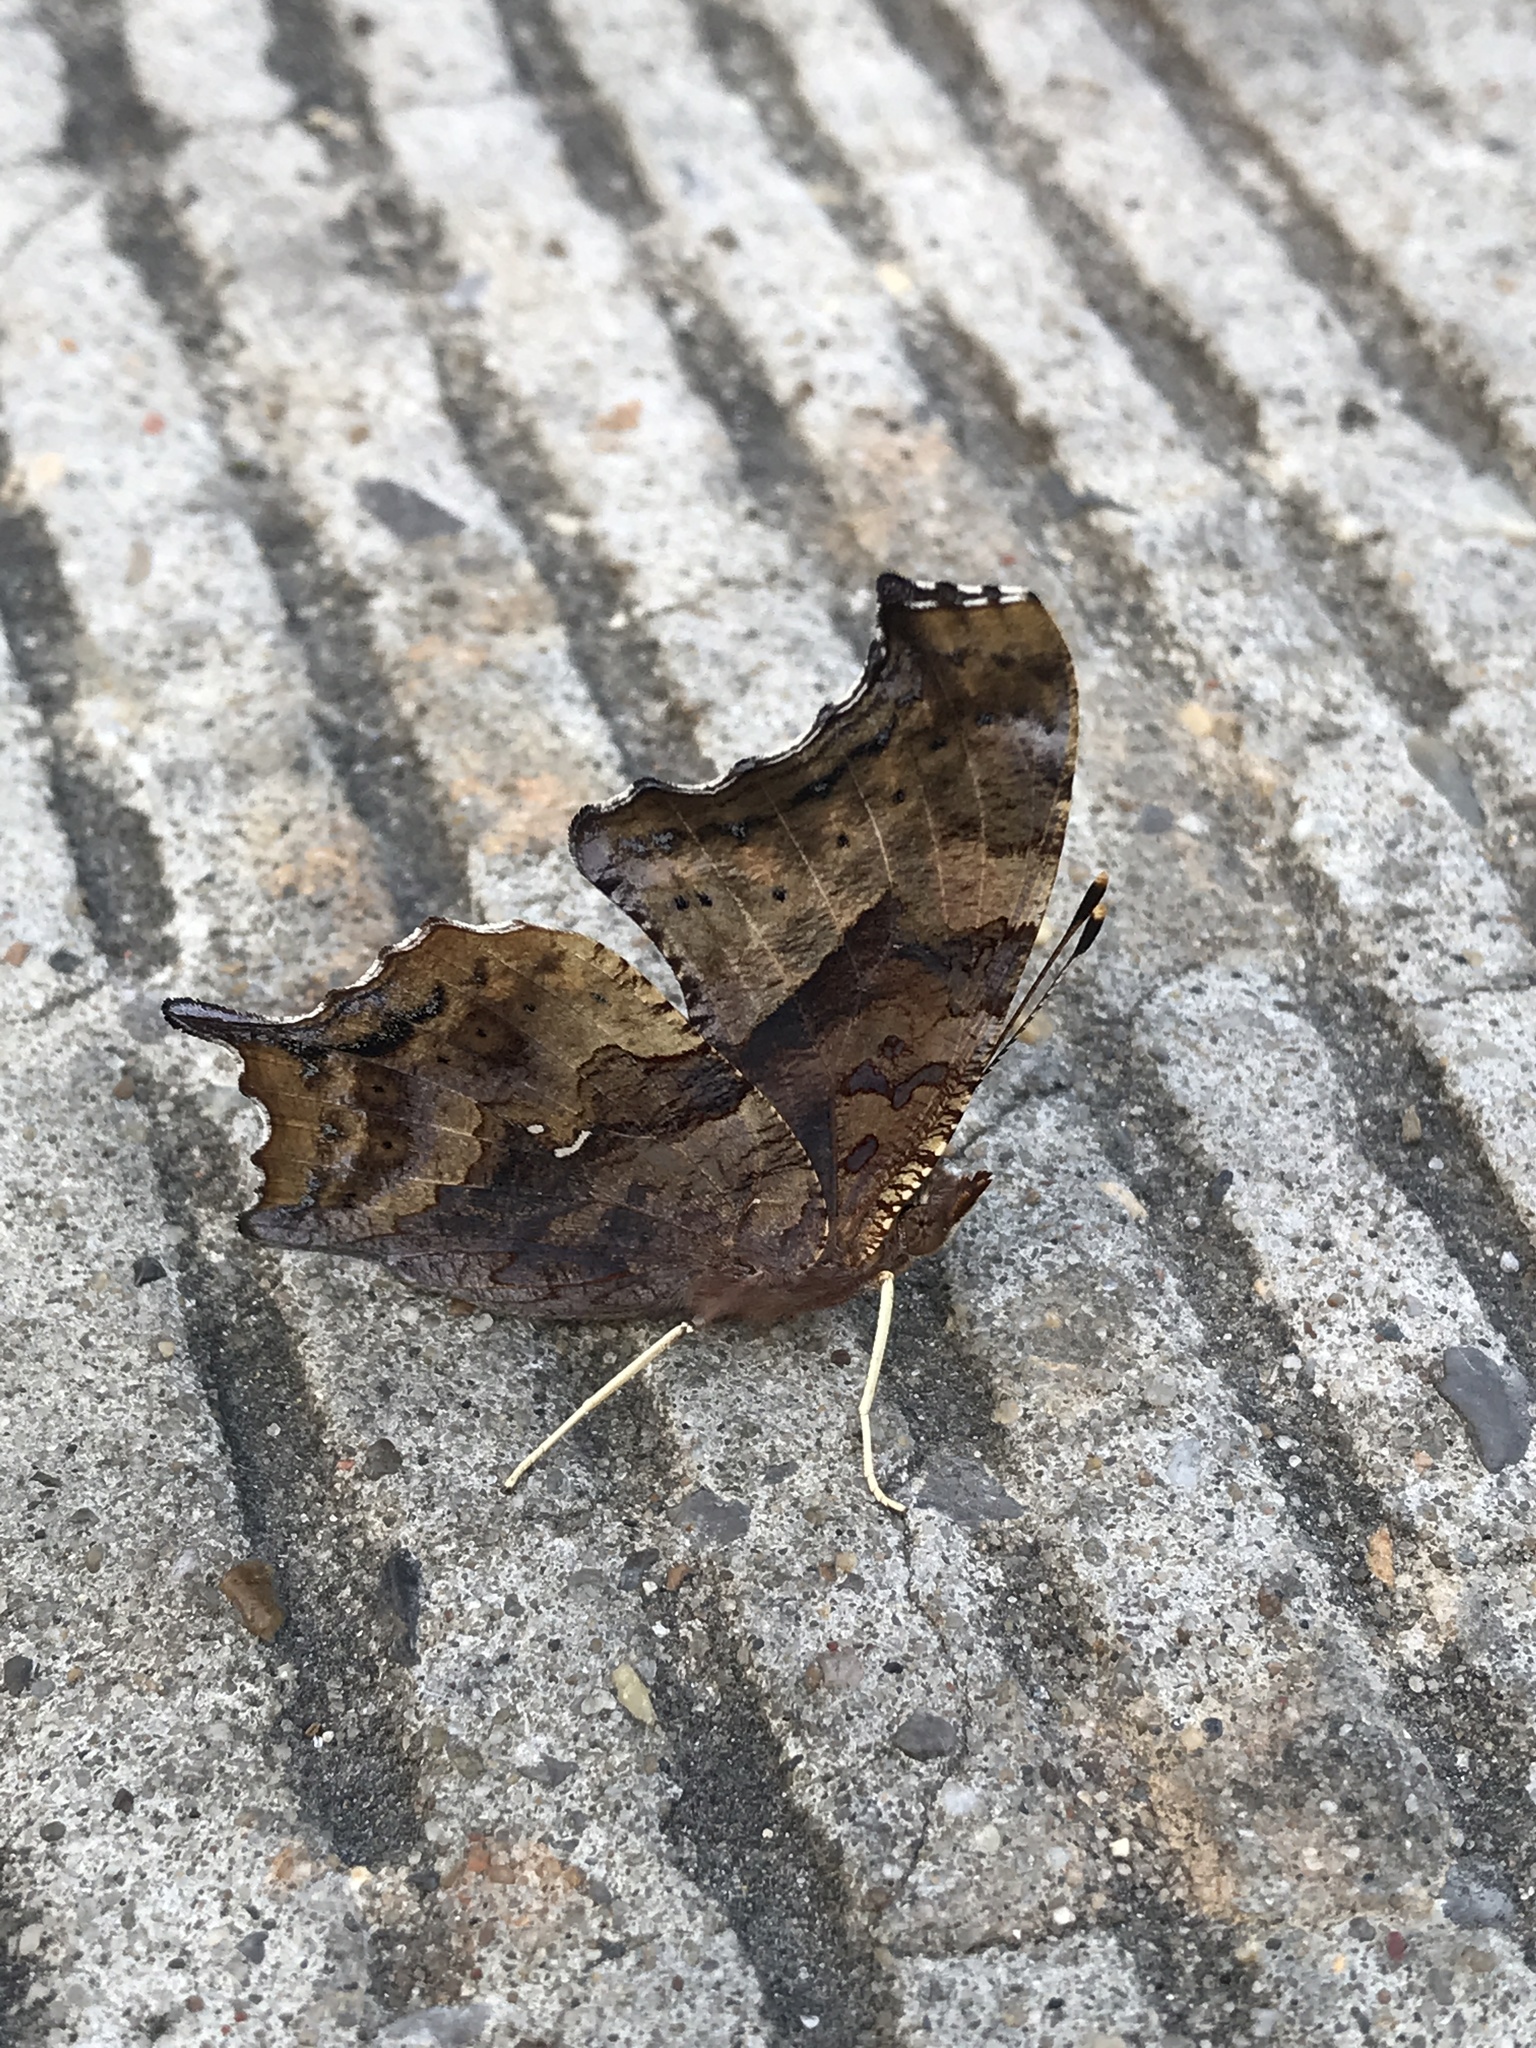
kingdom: Animalia
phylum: Arthropoda
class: Insecta
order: Lepidoptera
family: Nymphalidae
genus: Polygonia
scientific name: Polygonia interrogationis
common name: Question mark
